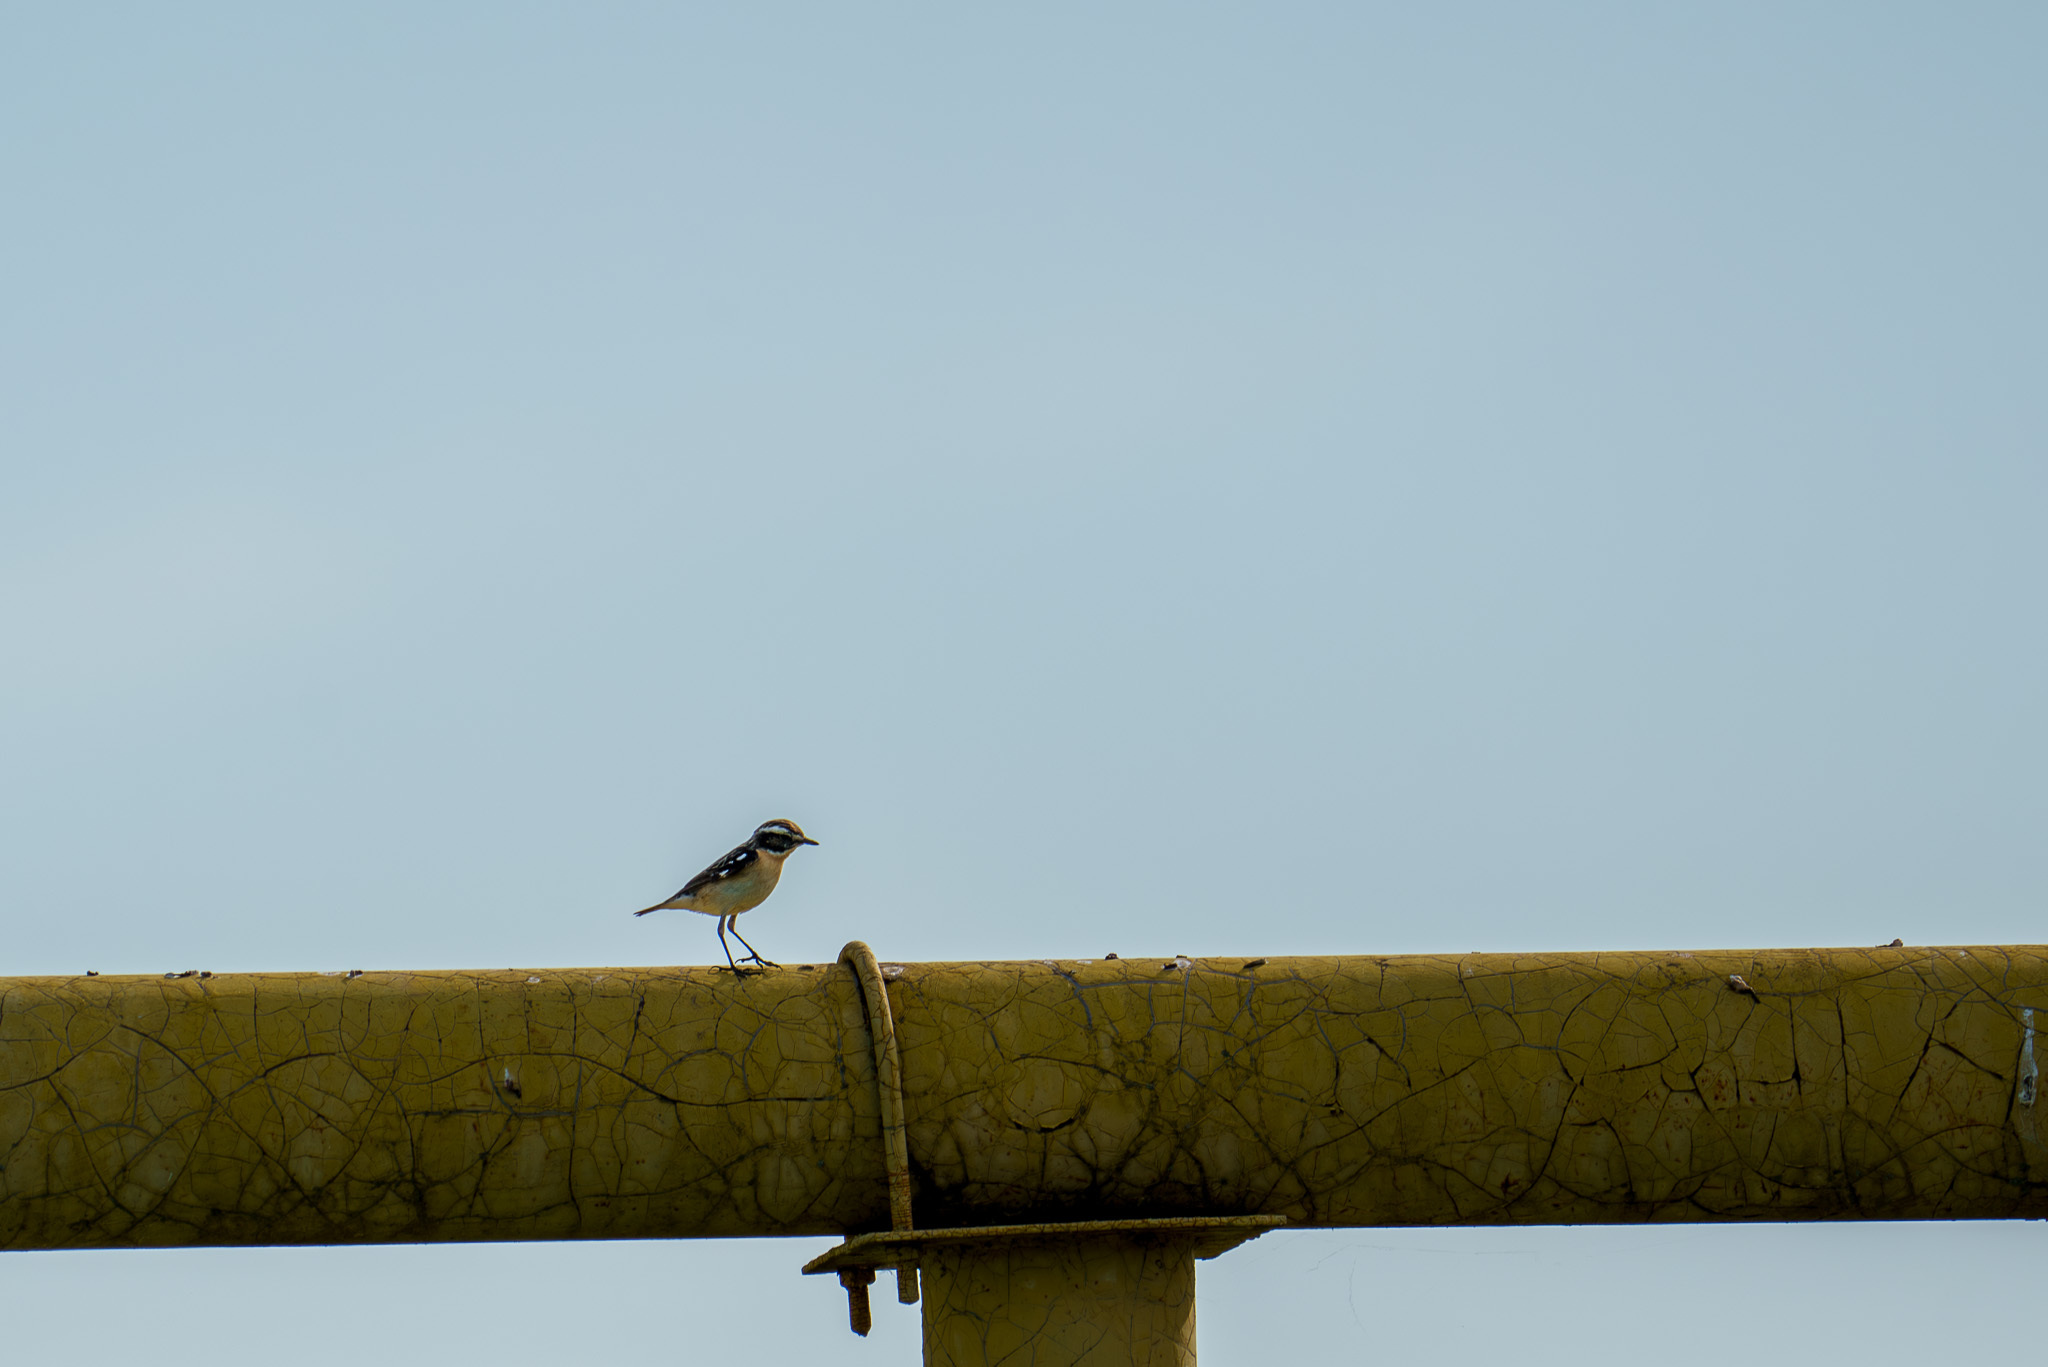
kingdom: Animalia
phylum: Chordata
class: Aves
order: Passeriformes
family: Muscicapidae
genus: Saxicola
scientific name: Saxicola rubetra
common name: Whinchat
